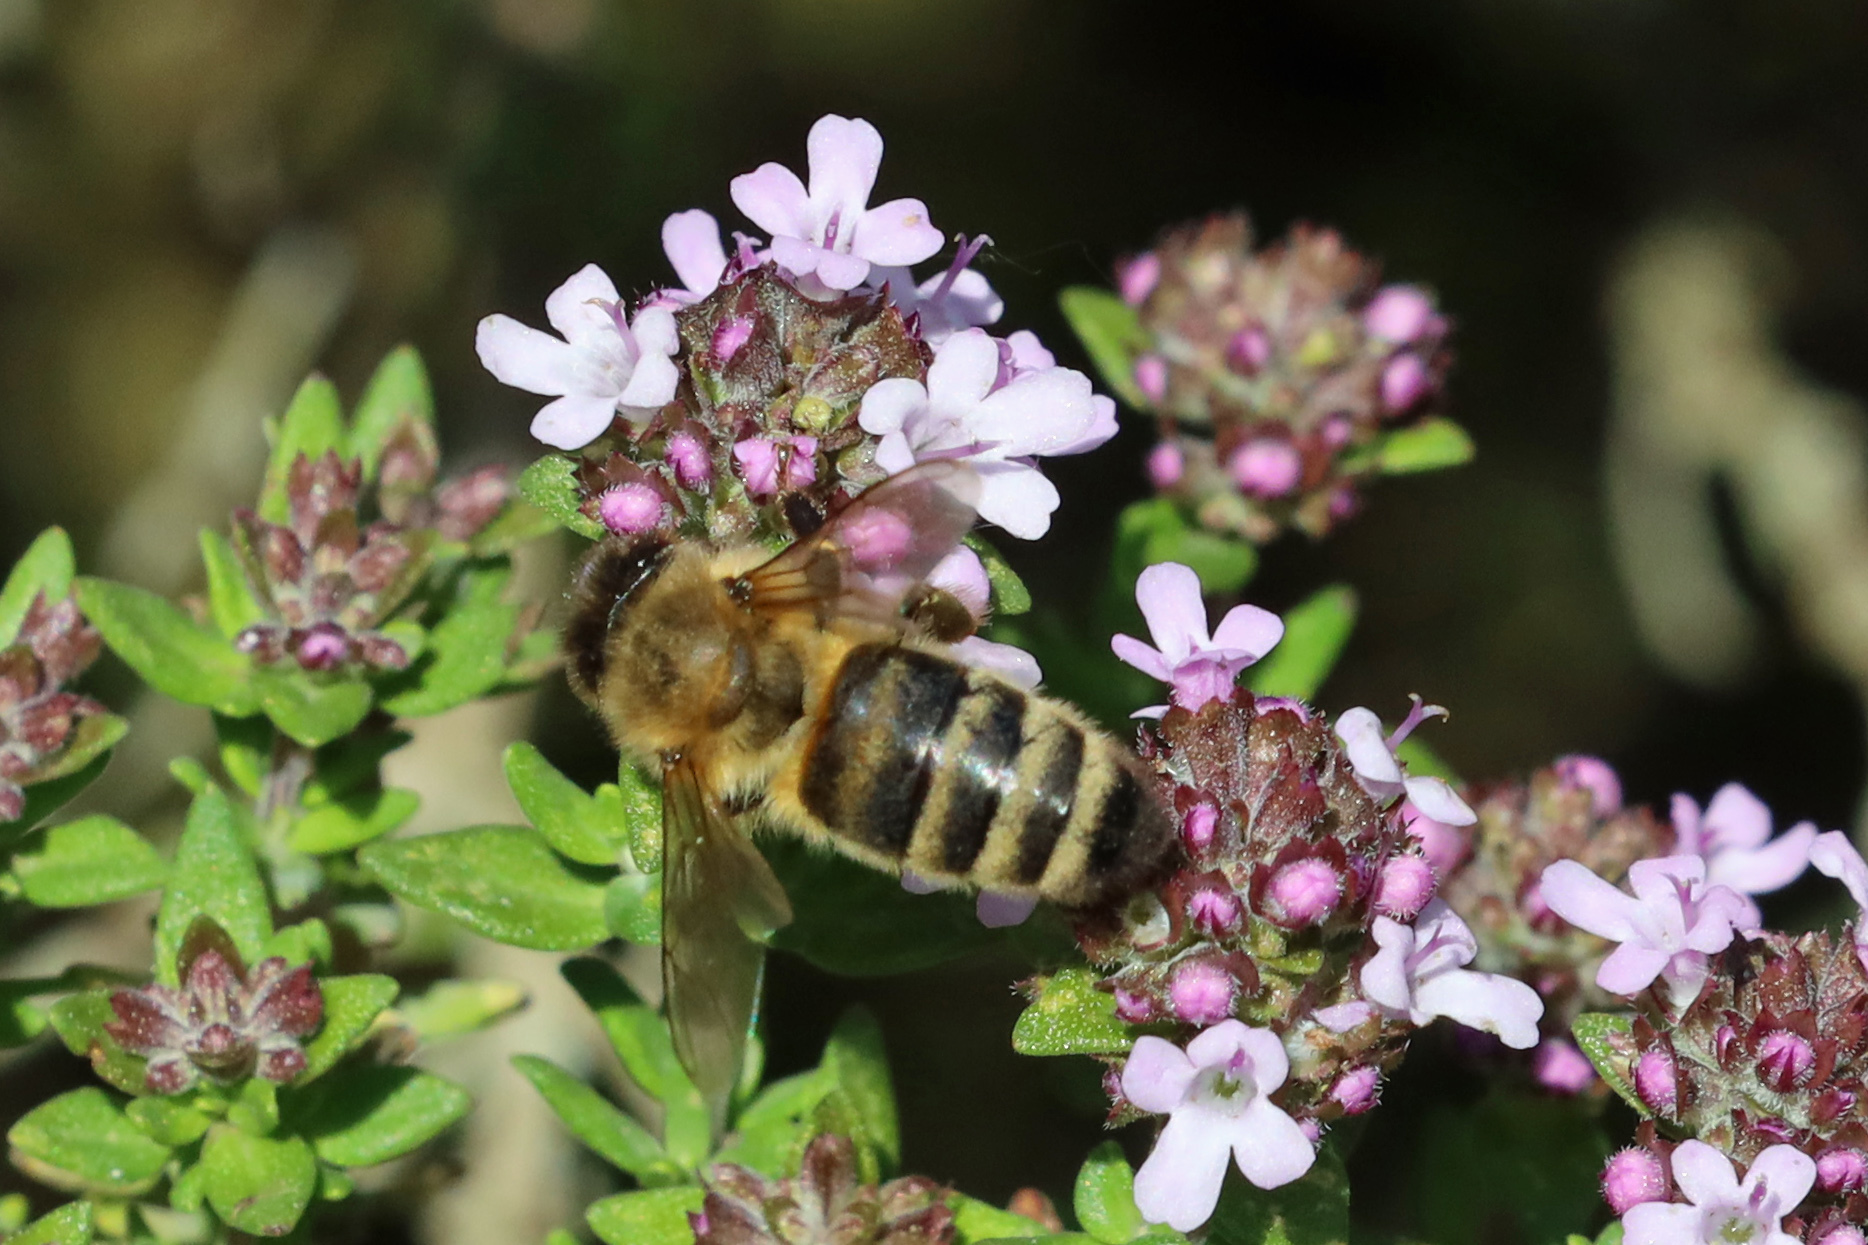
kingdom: Animalia
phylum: Arthropoda
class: Insecta
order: Hymenoptera
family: Apidae
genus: Apis
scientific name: Apis mellifera
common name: Honey bee
